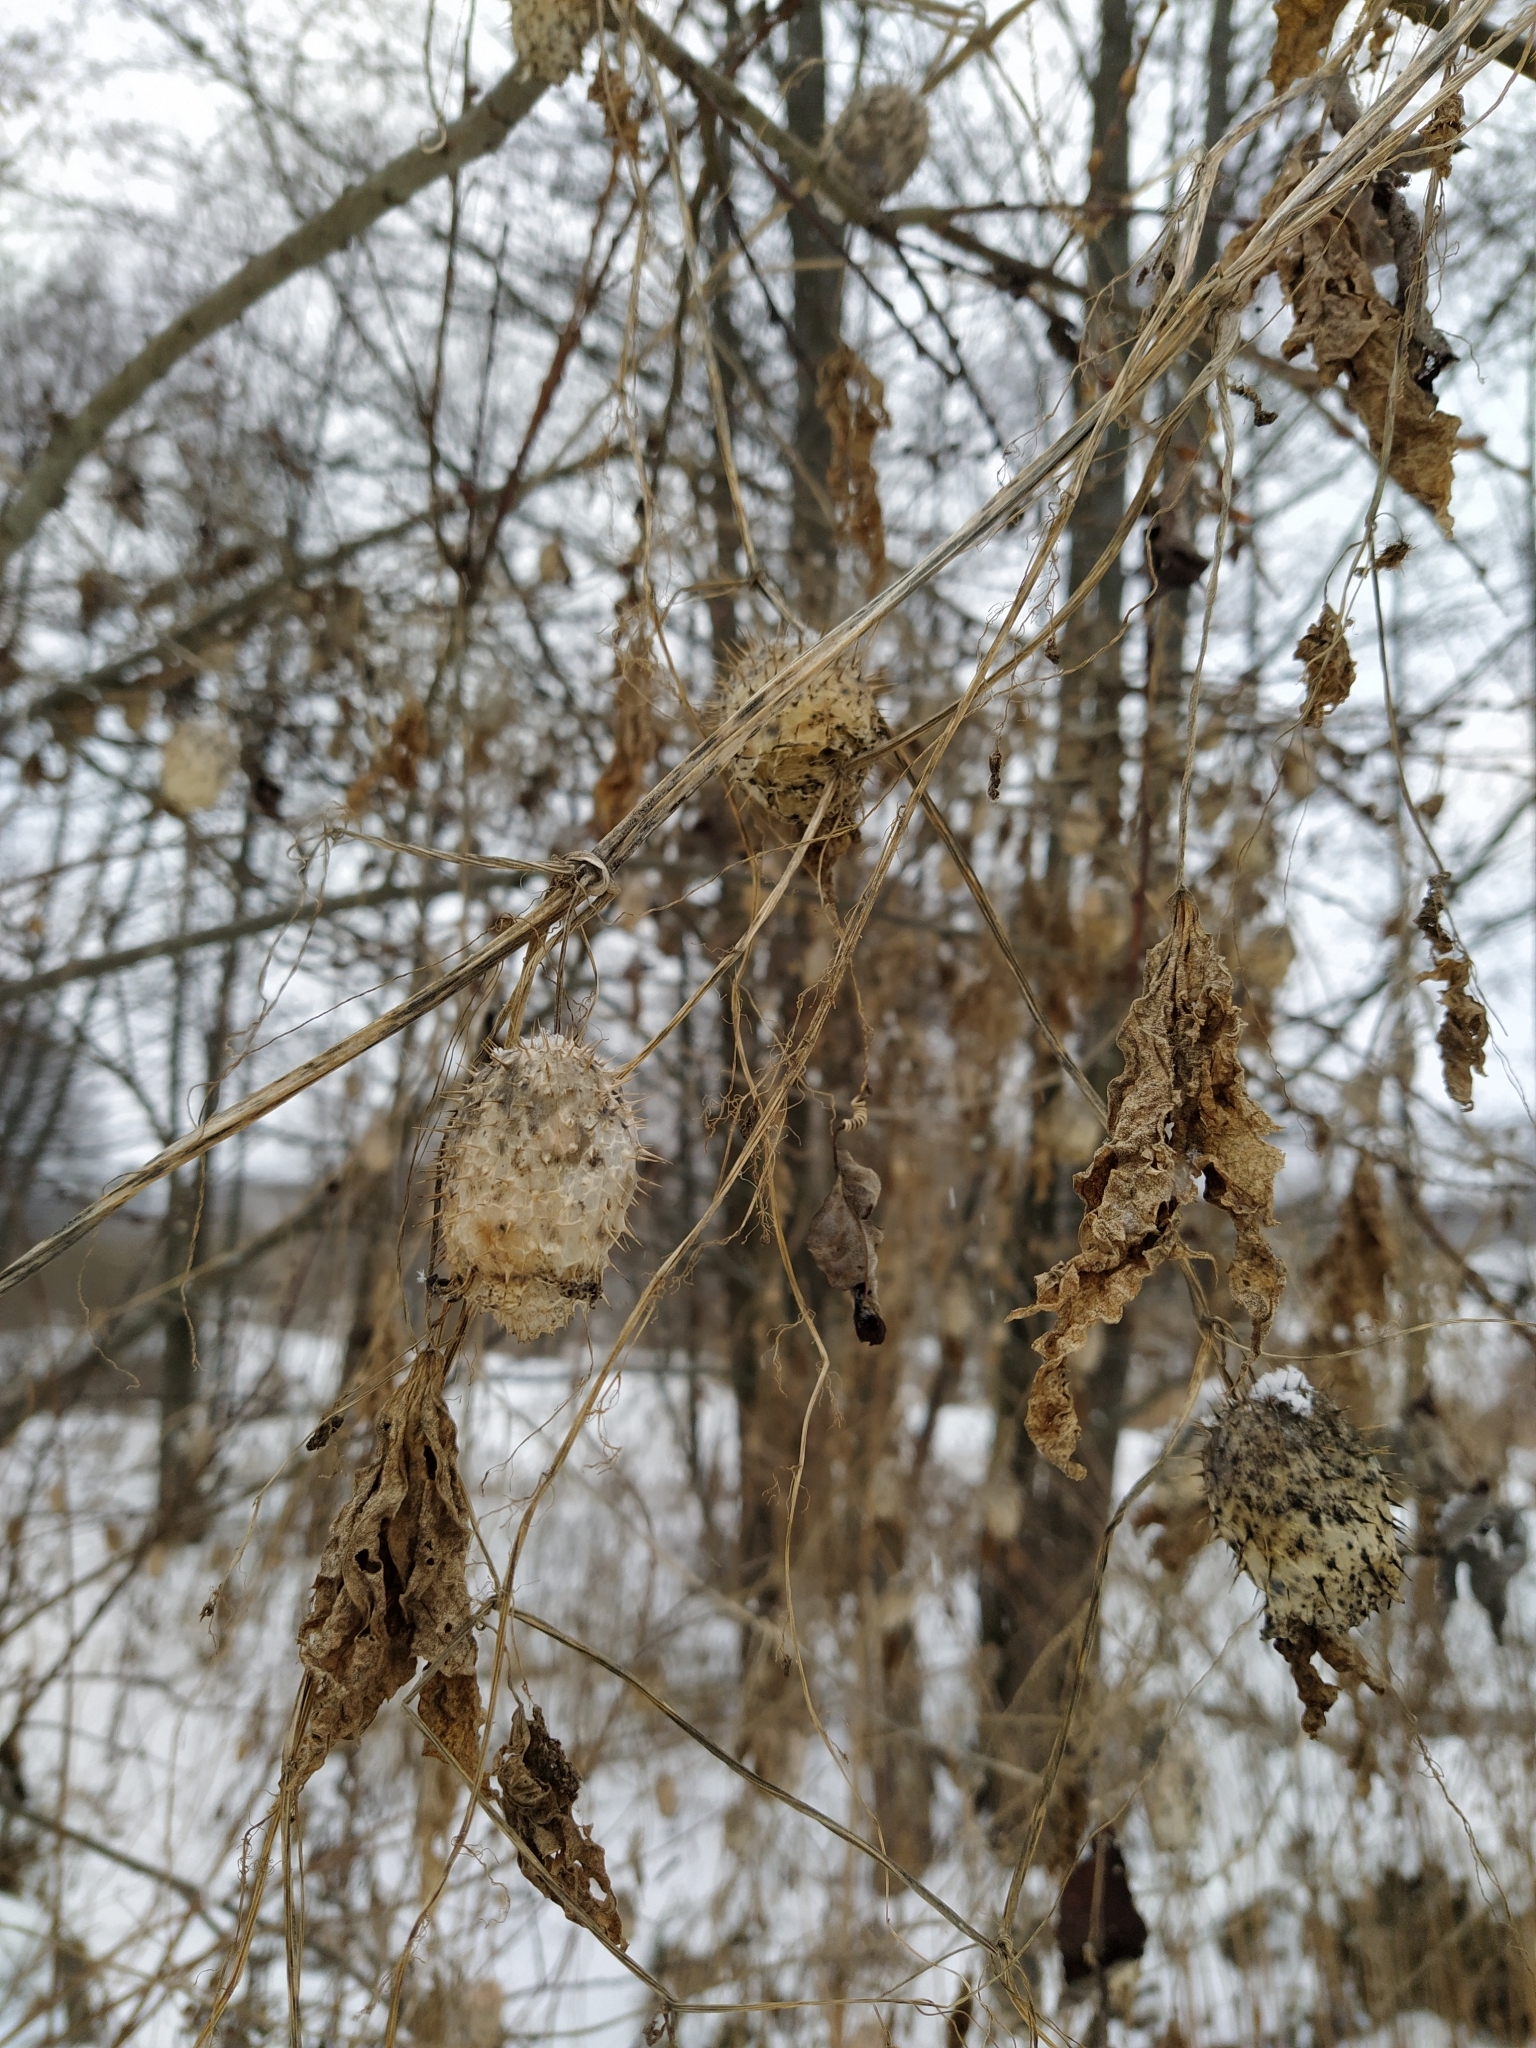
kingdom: Plantae
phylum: Tracheophyta
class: Magnoliopsida
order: Cucurbitales
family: Cucurbitaceae
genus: Echinocystis
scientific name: Echinocystis lobata
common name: Wild cucumber
